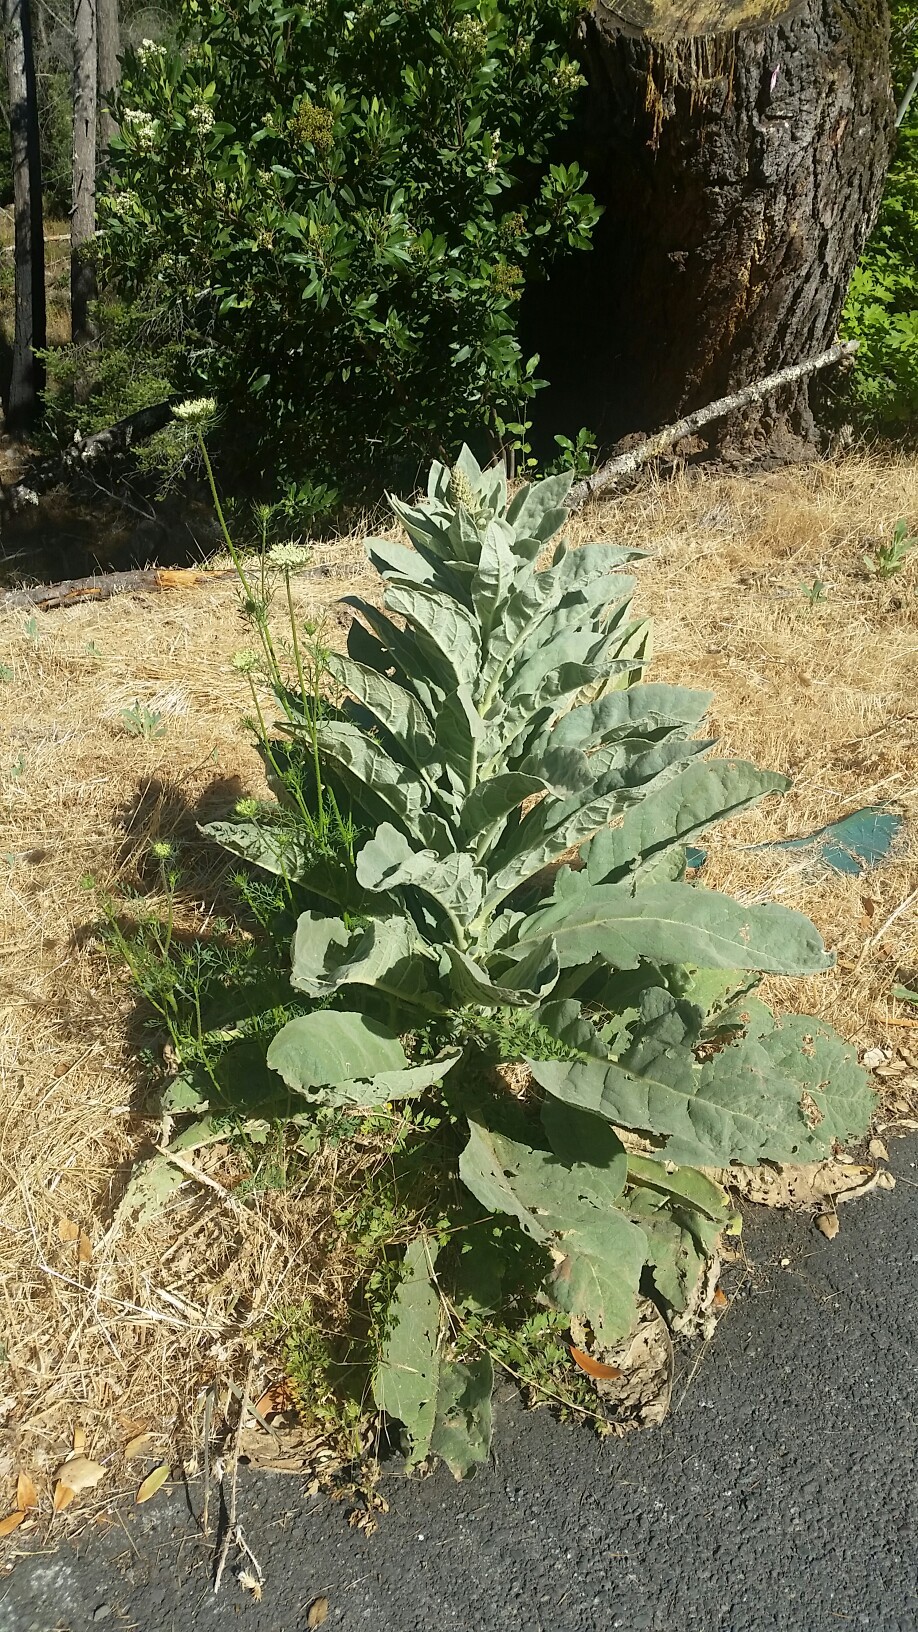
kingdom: Plantae
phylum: Tracheophyta
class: Magnoliopsida
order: Lamiales
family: Scrophulariaceae
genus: Verbascum
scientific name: Verbascum thapsus
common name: Common mullein
